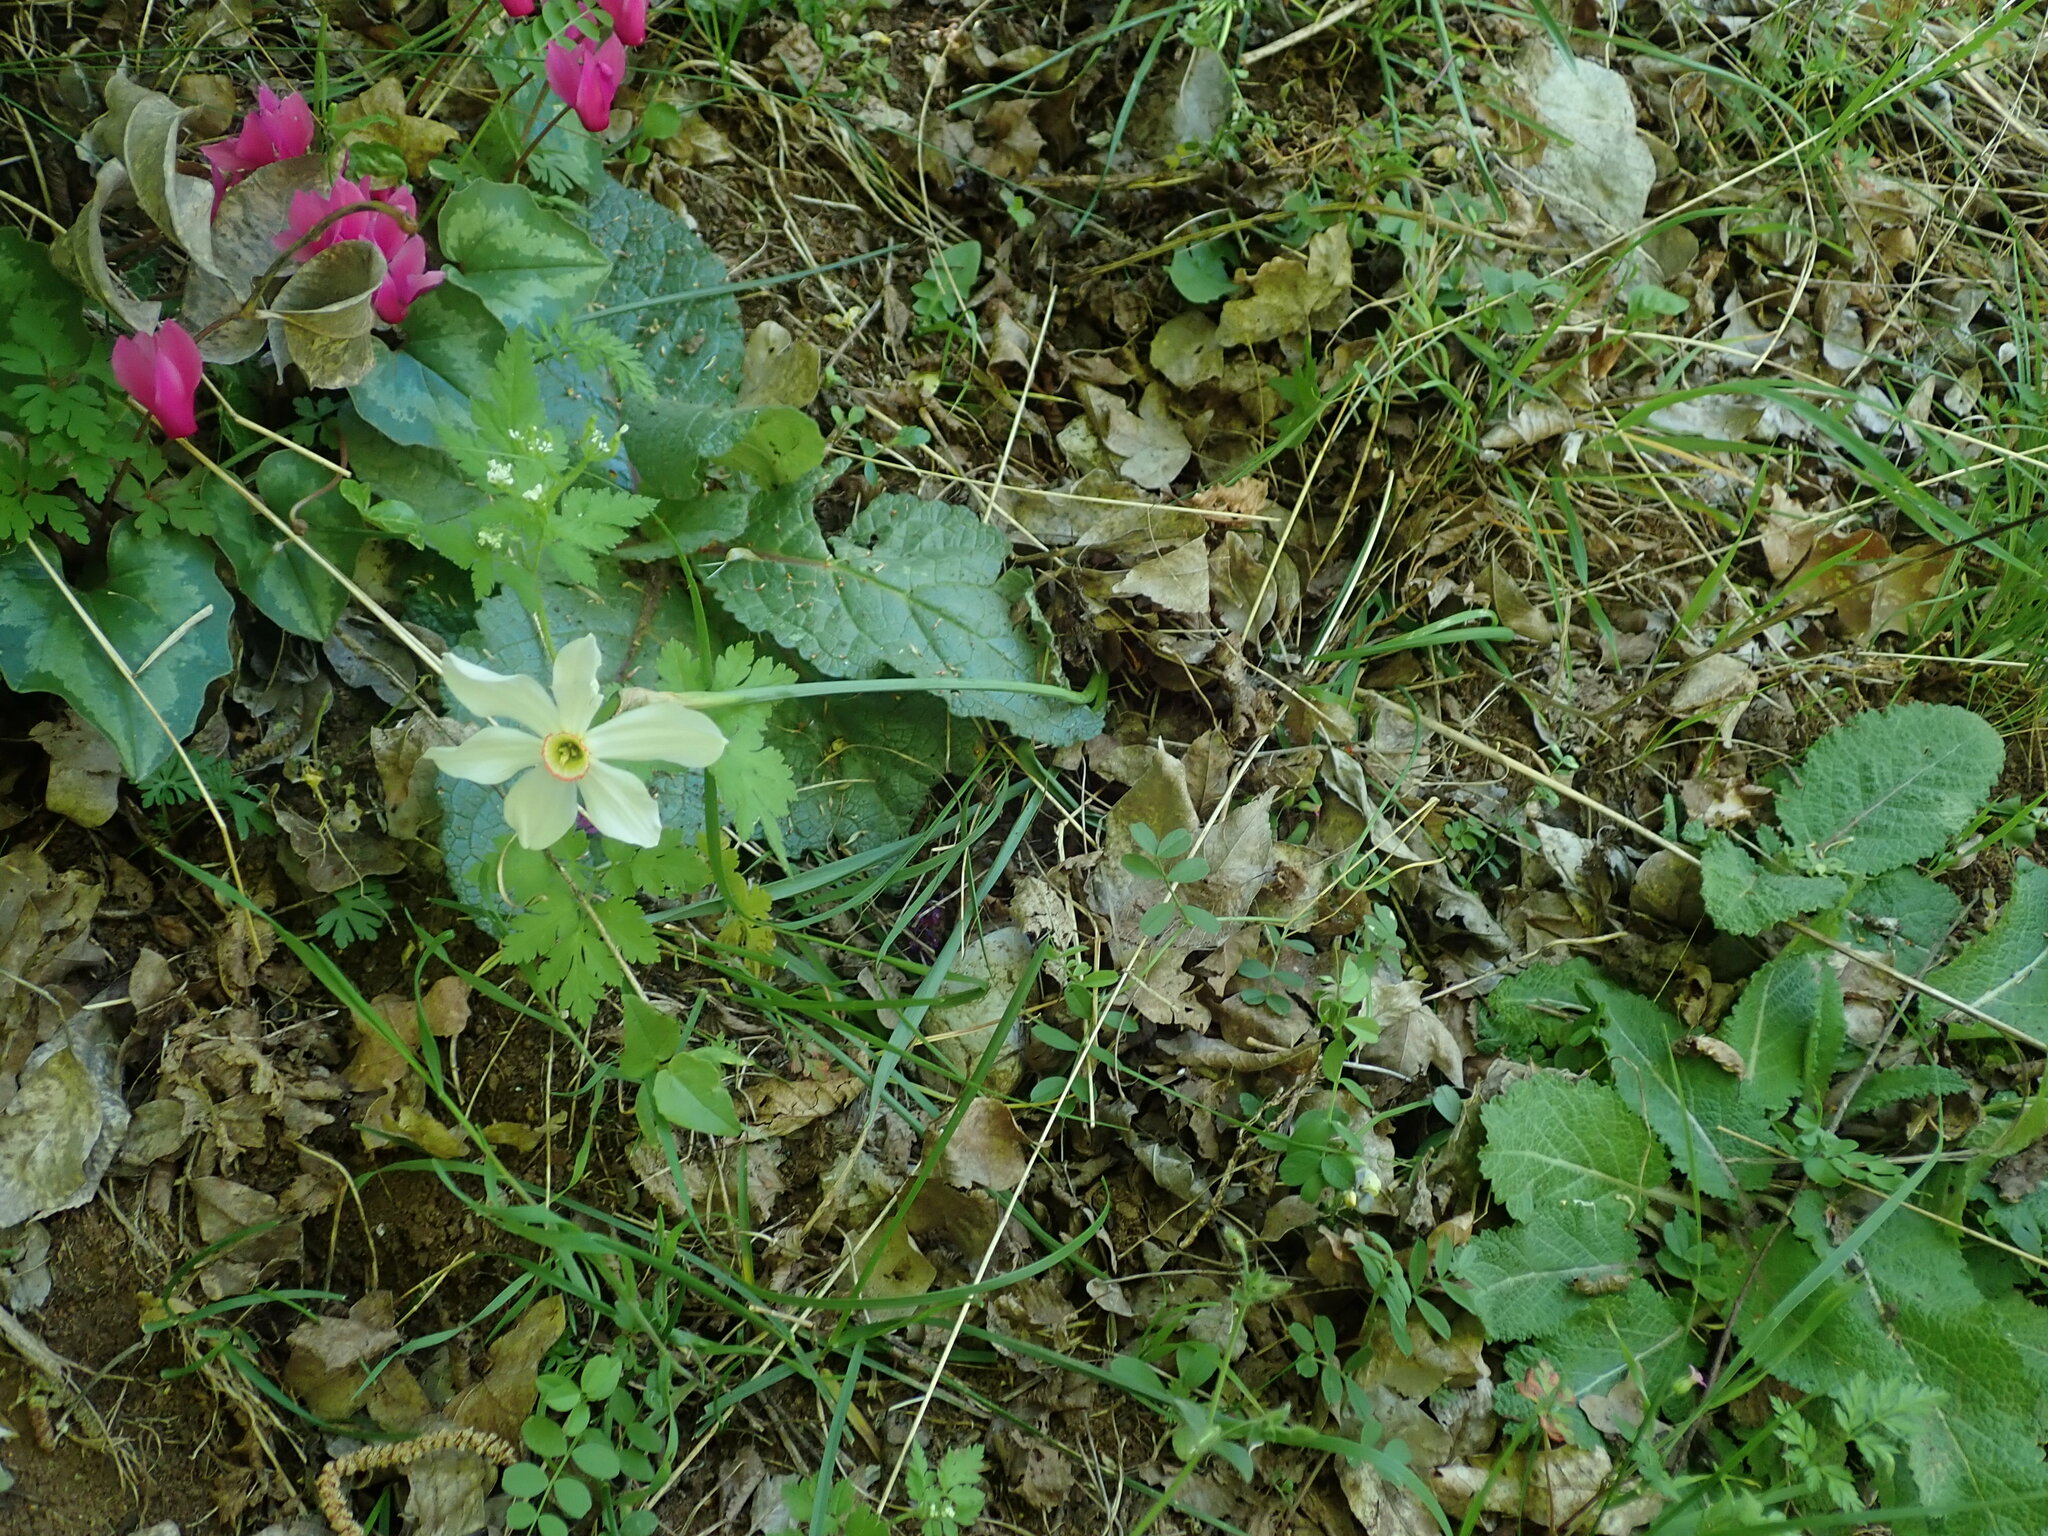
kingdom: Plantae
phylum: Tracheophyta
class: Liliopsida
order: Asparagales
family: Amaryllidaceae
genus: Narcissus
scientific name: Narcissus poeticus
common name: Pheasant's-eye daffodil
